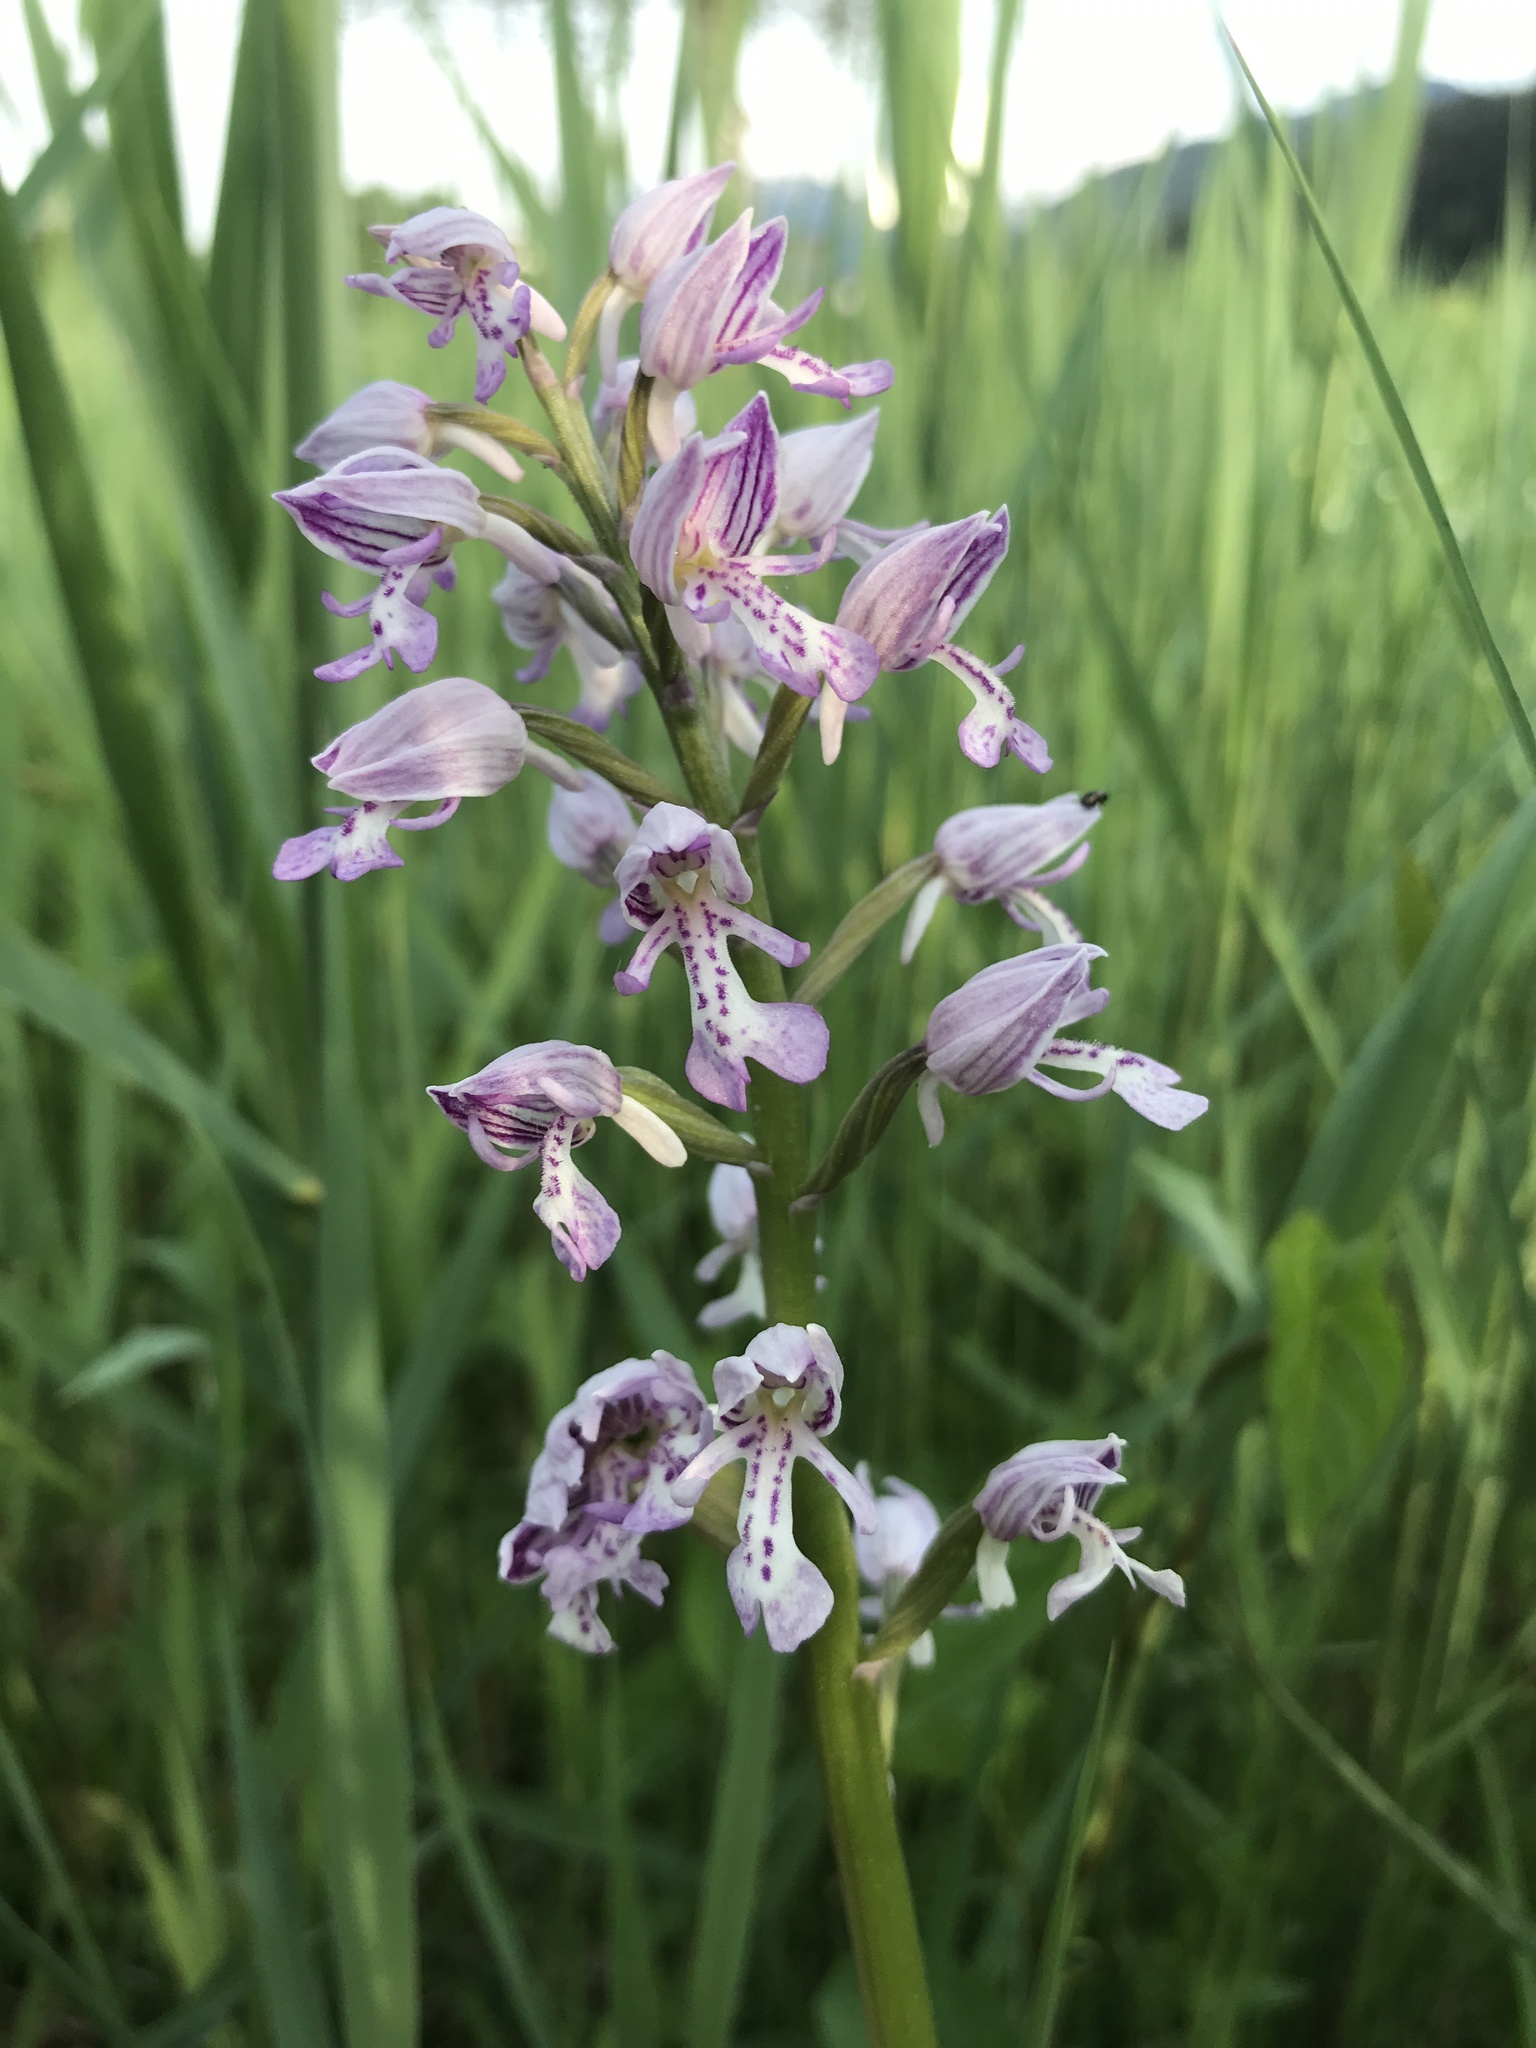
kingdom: Plantae
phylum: Tracheophyta
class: Liliopsida
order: Asparagales
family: Orchidaceae
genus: Orchis
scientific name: Orchis militaris
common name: Military orchid
